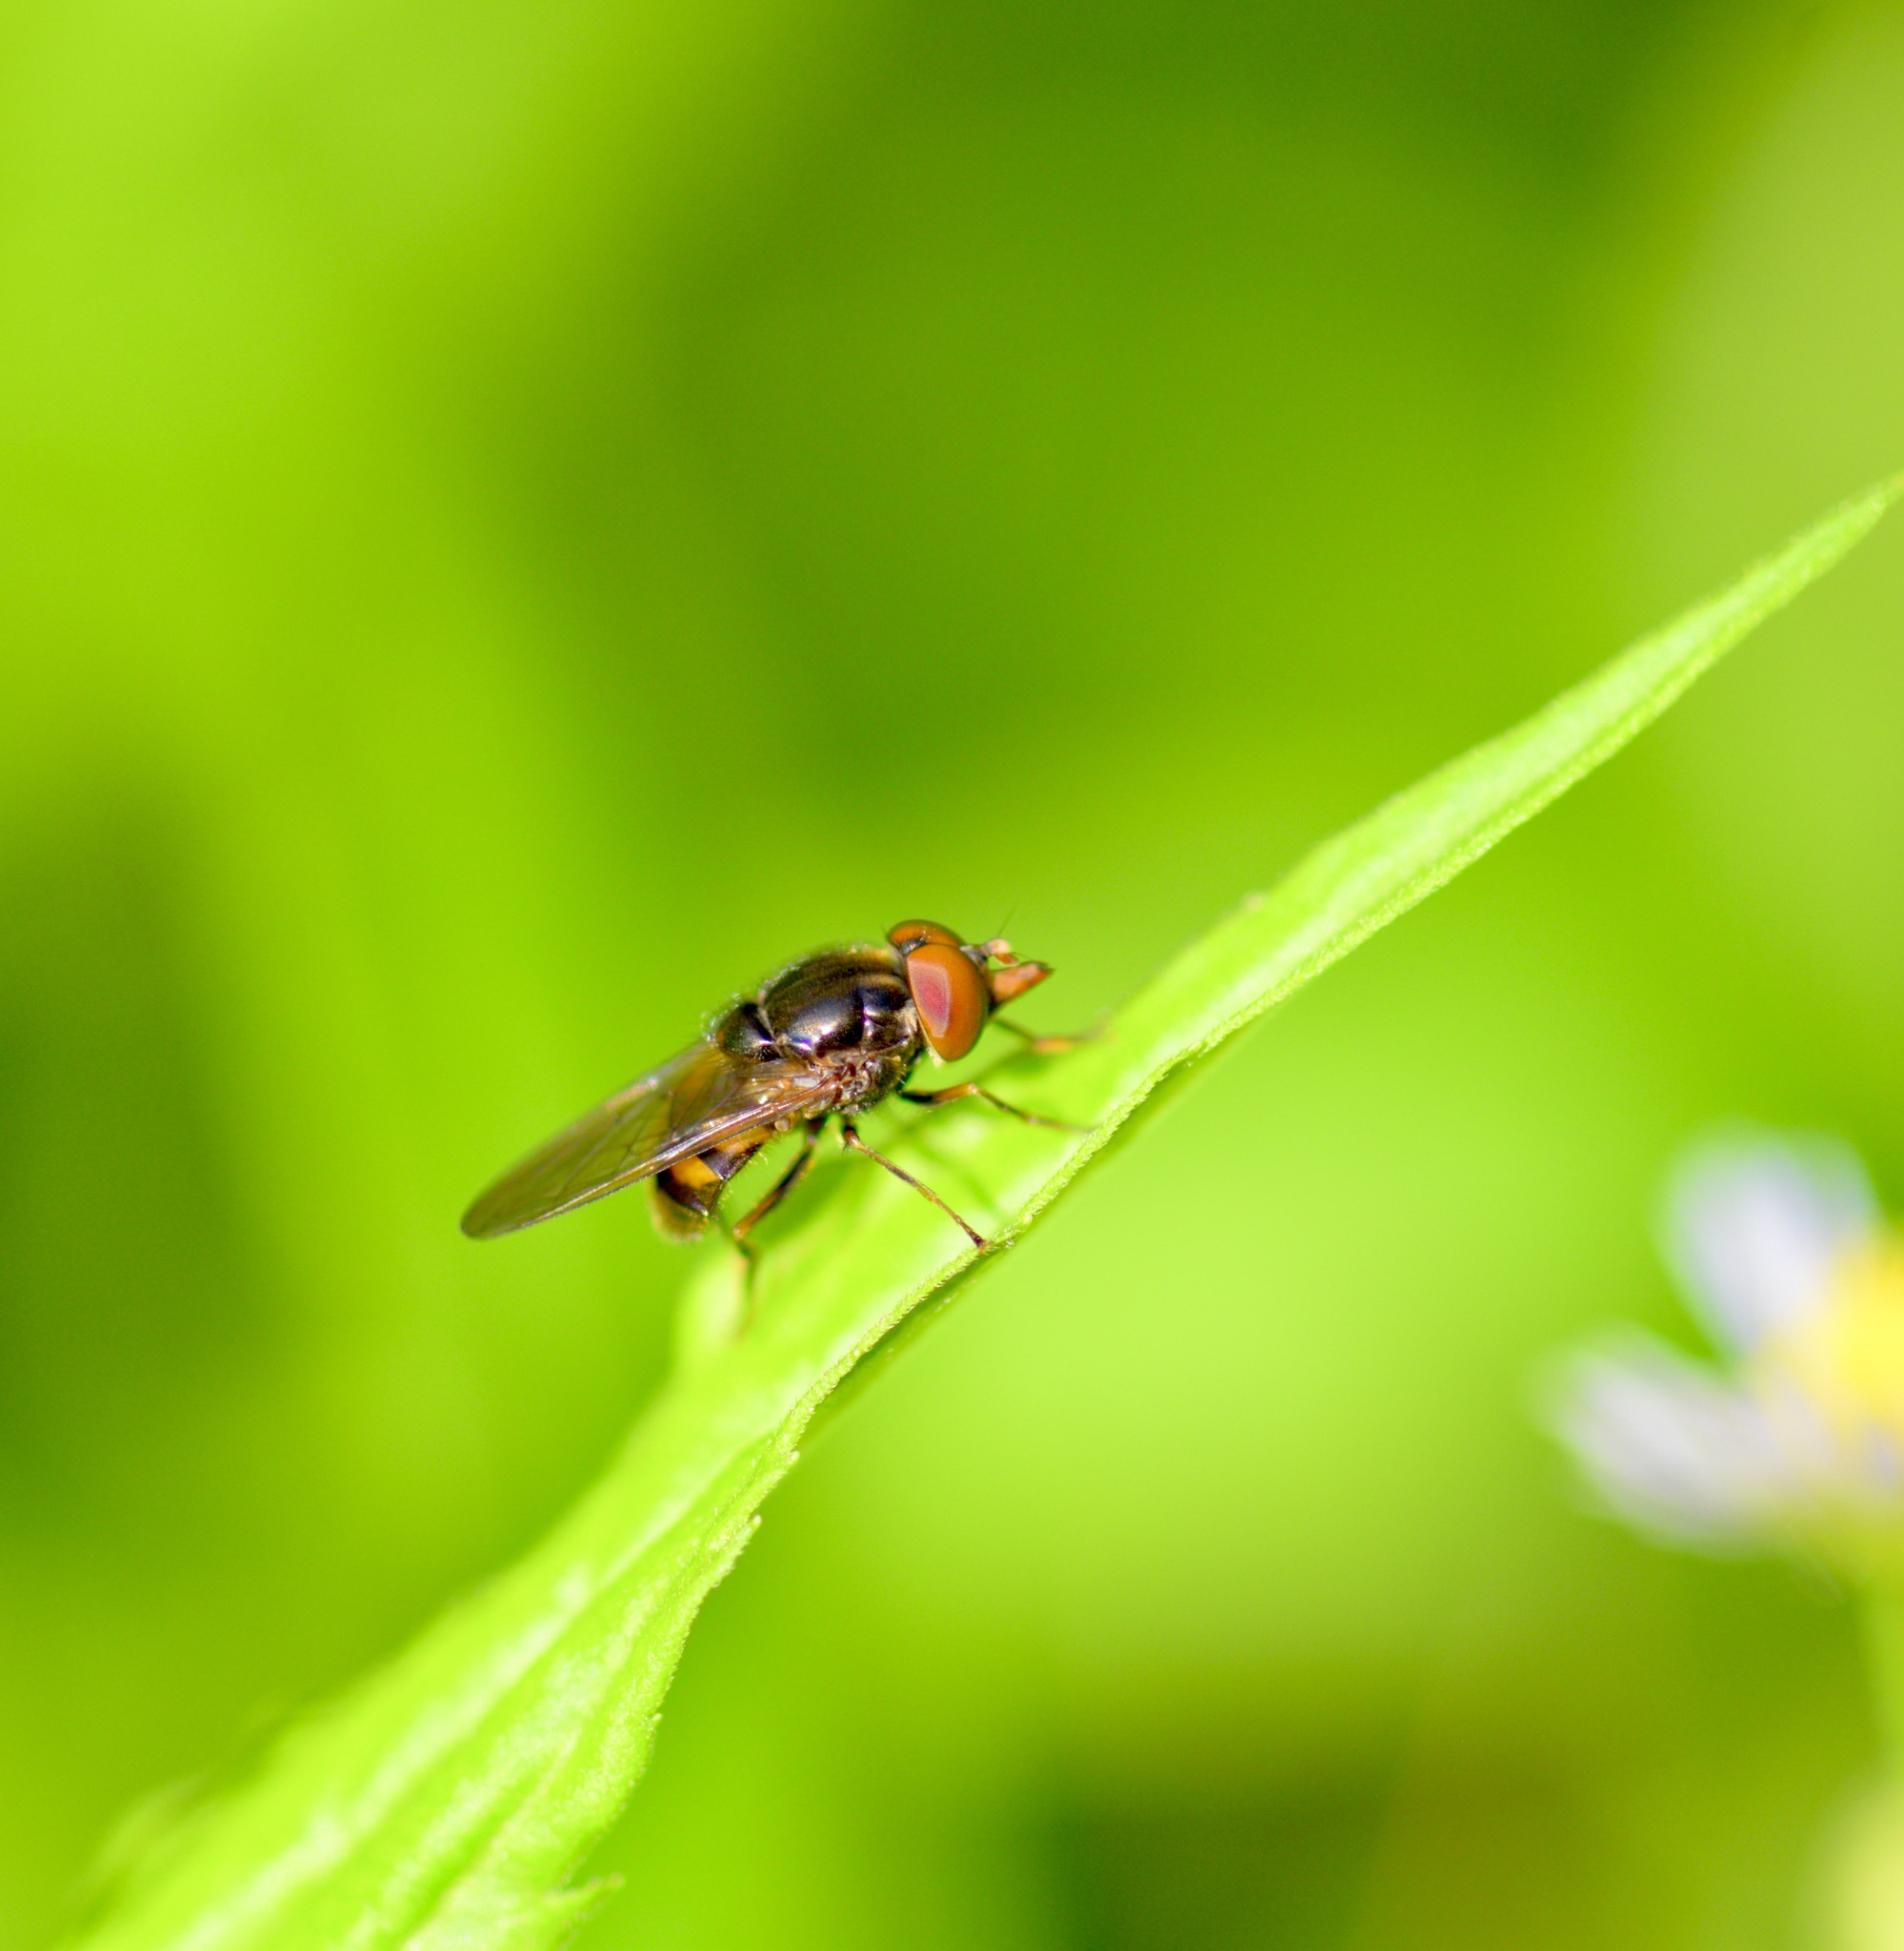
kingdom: Animalia
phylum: Arthropoda
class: Insecta
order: Diptera
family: Syrphidae
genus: Rhingia
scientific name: Rhingia nasica
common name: American snout fly
